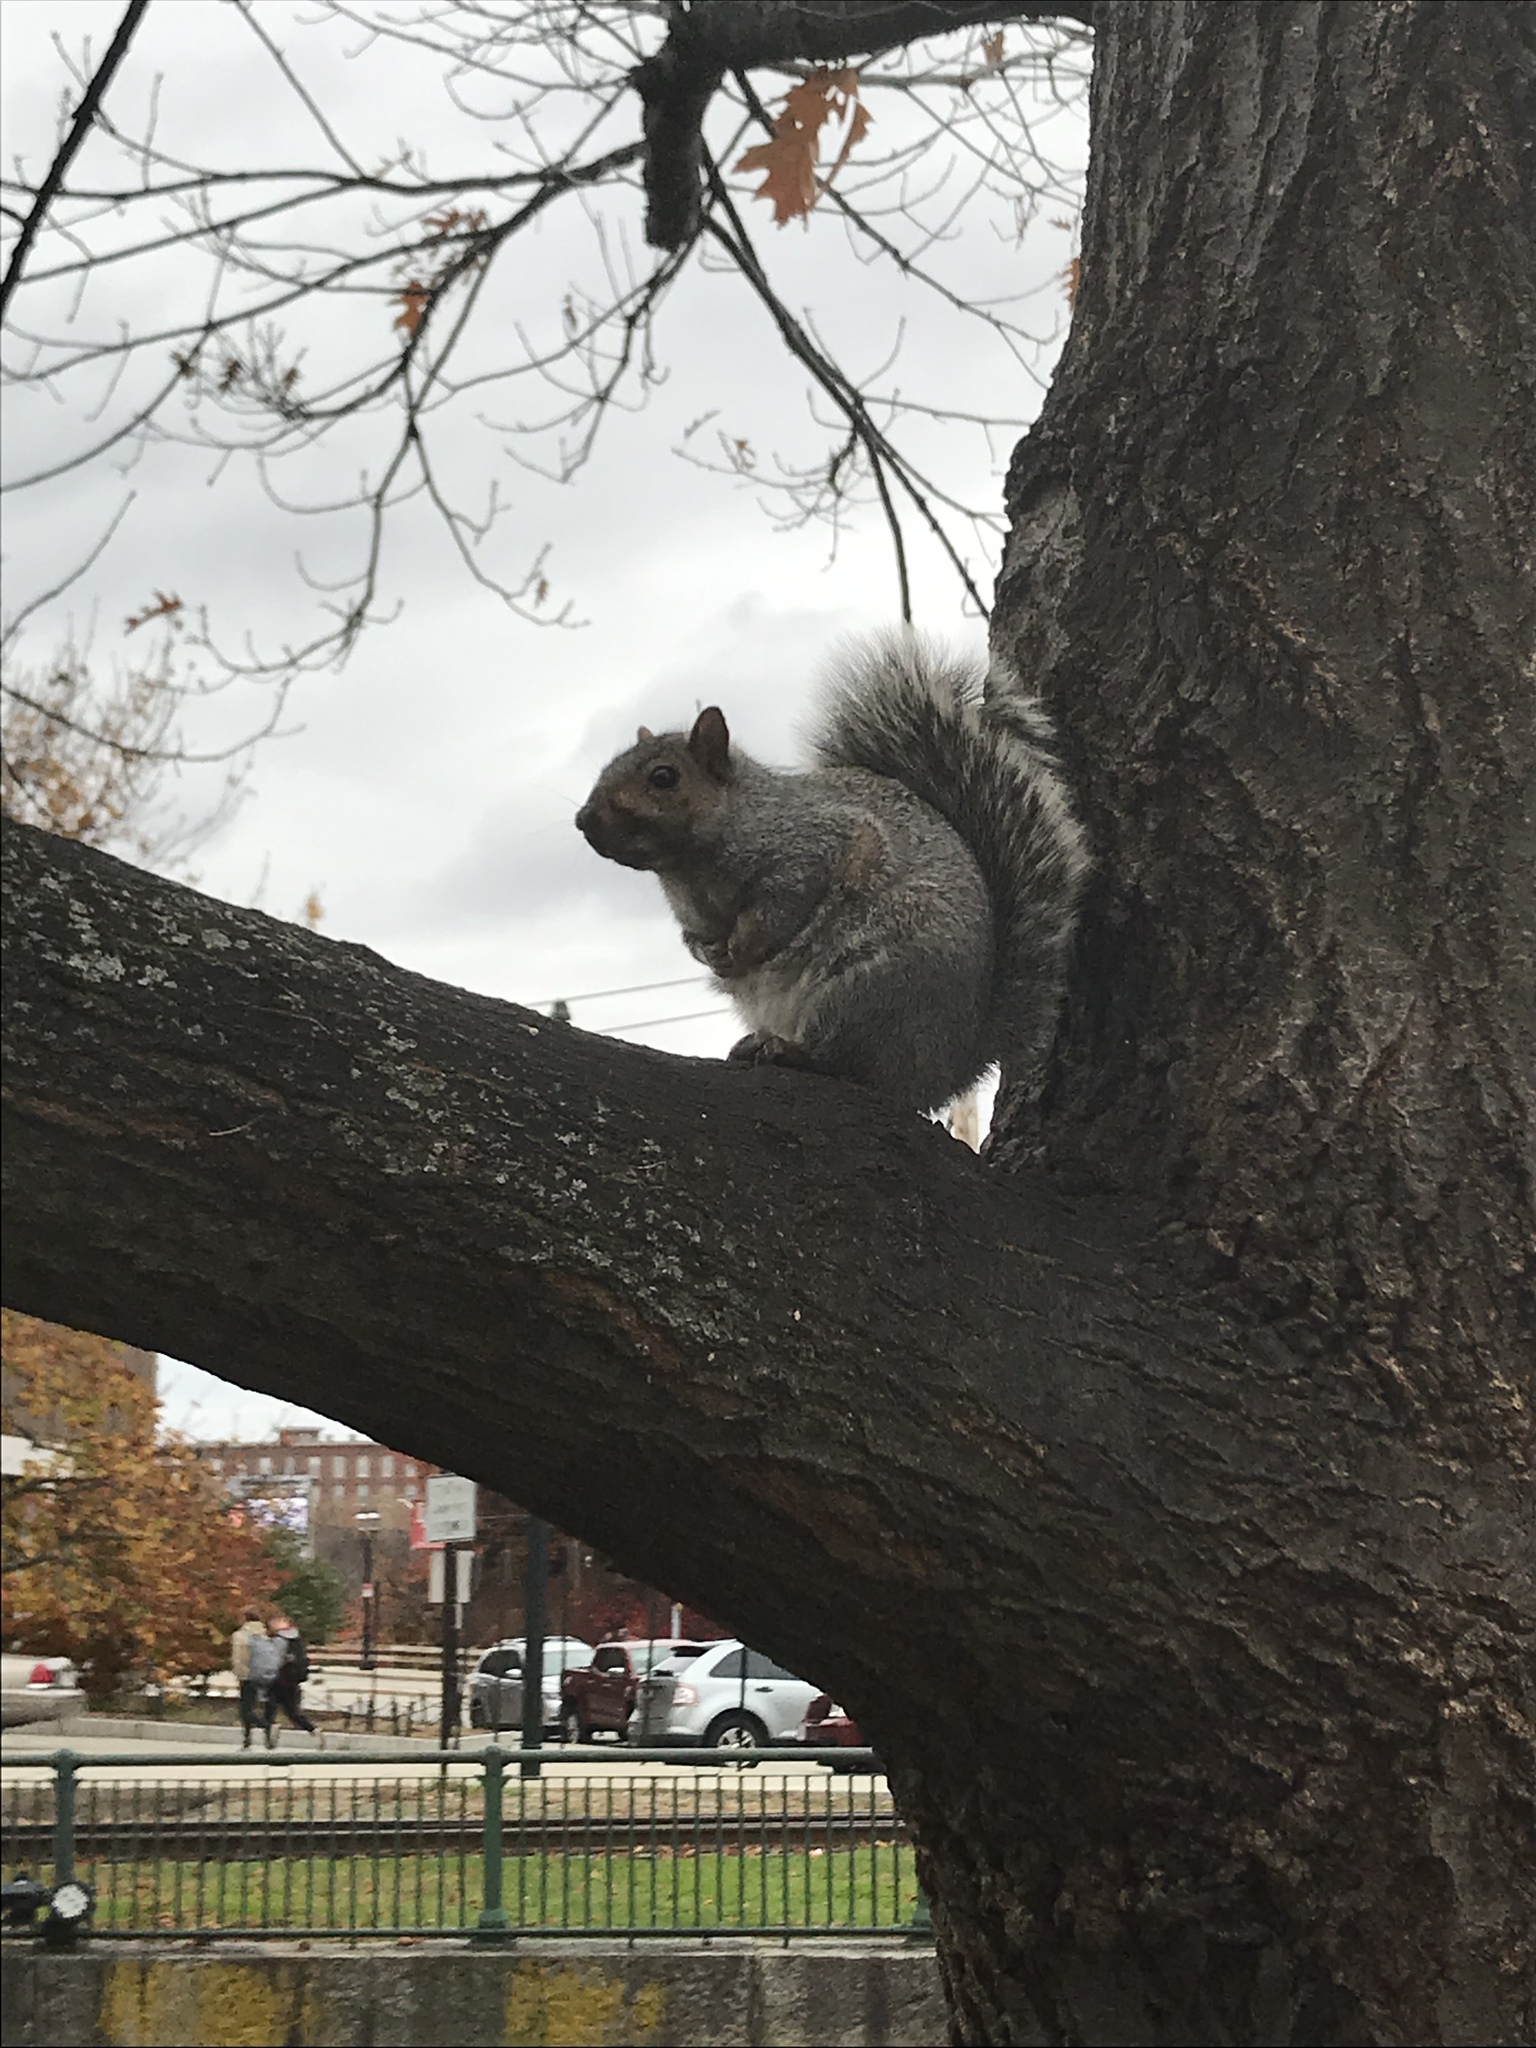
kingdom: Animalia
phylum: Chordata
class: Mammalia
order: Rodentia
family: Sciuridae
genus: Sciurus
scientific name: Sciurus carolinensis
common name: Eastern gray squirrel
